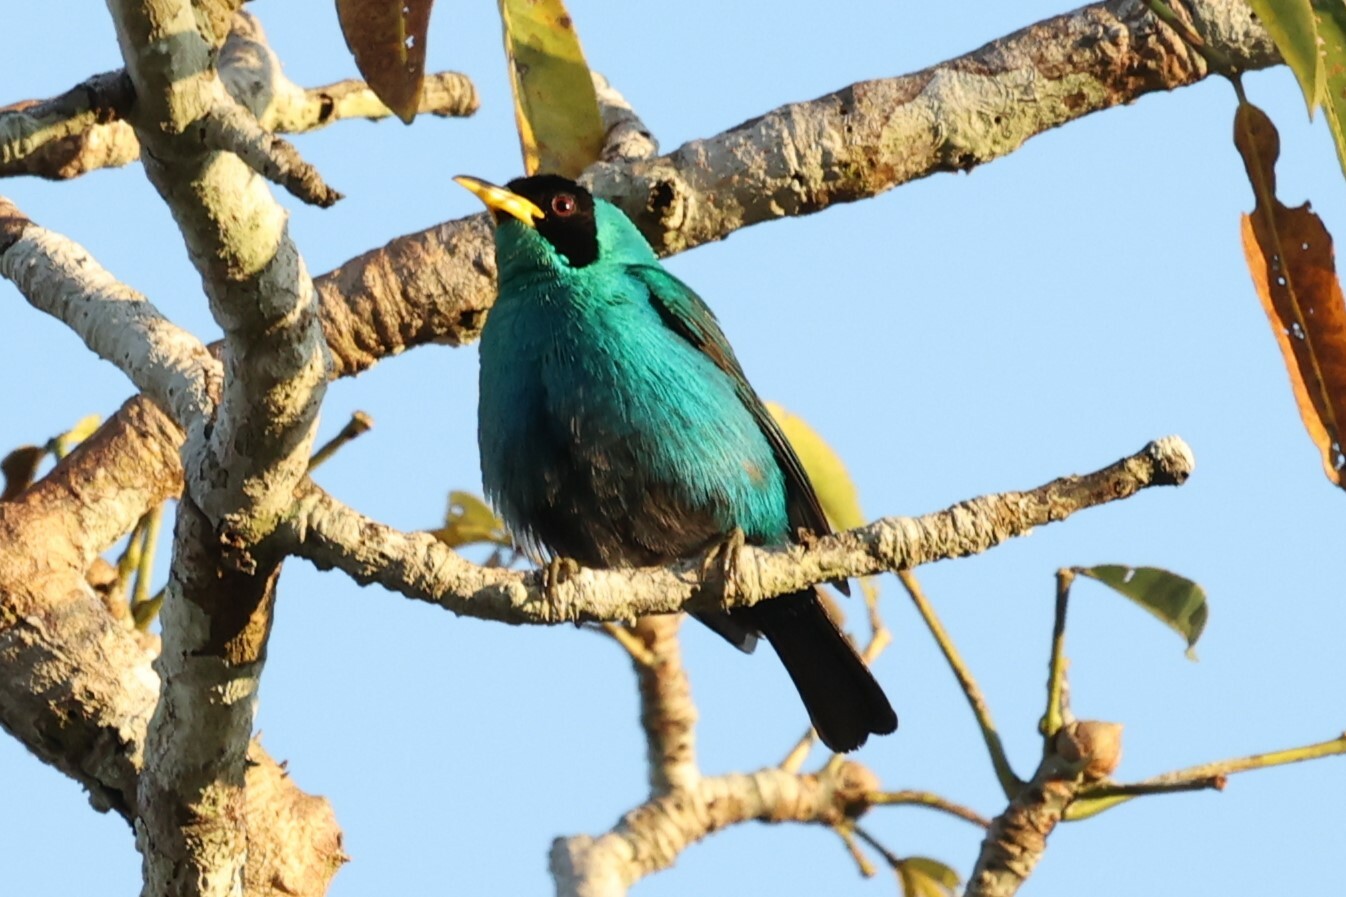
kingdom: Animalia
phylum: Chordata
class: Aves
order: Passeriformes
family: Thraupidae
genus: Chlorophanes
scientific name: Chlorophanes spiza
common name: Green honeycreeper
